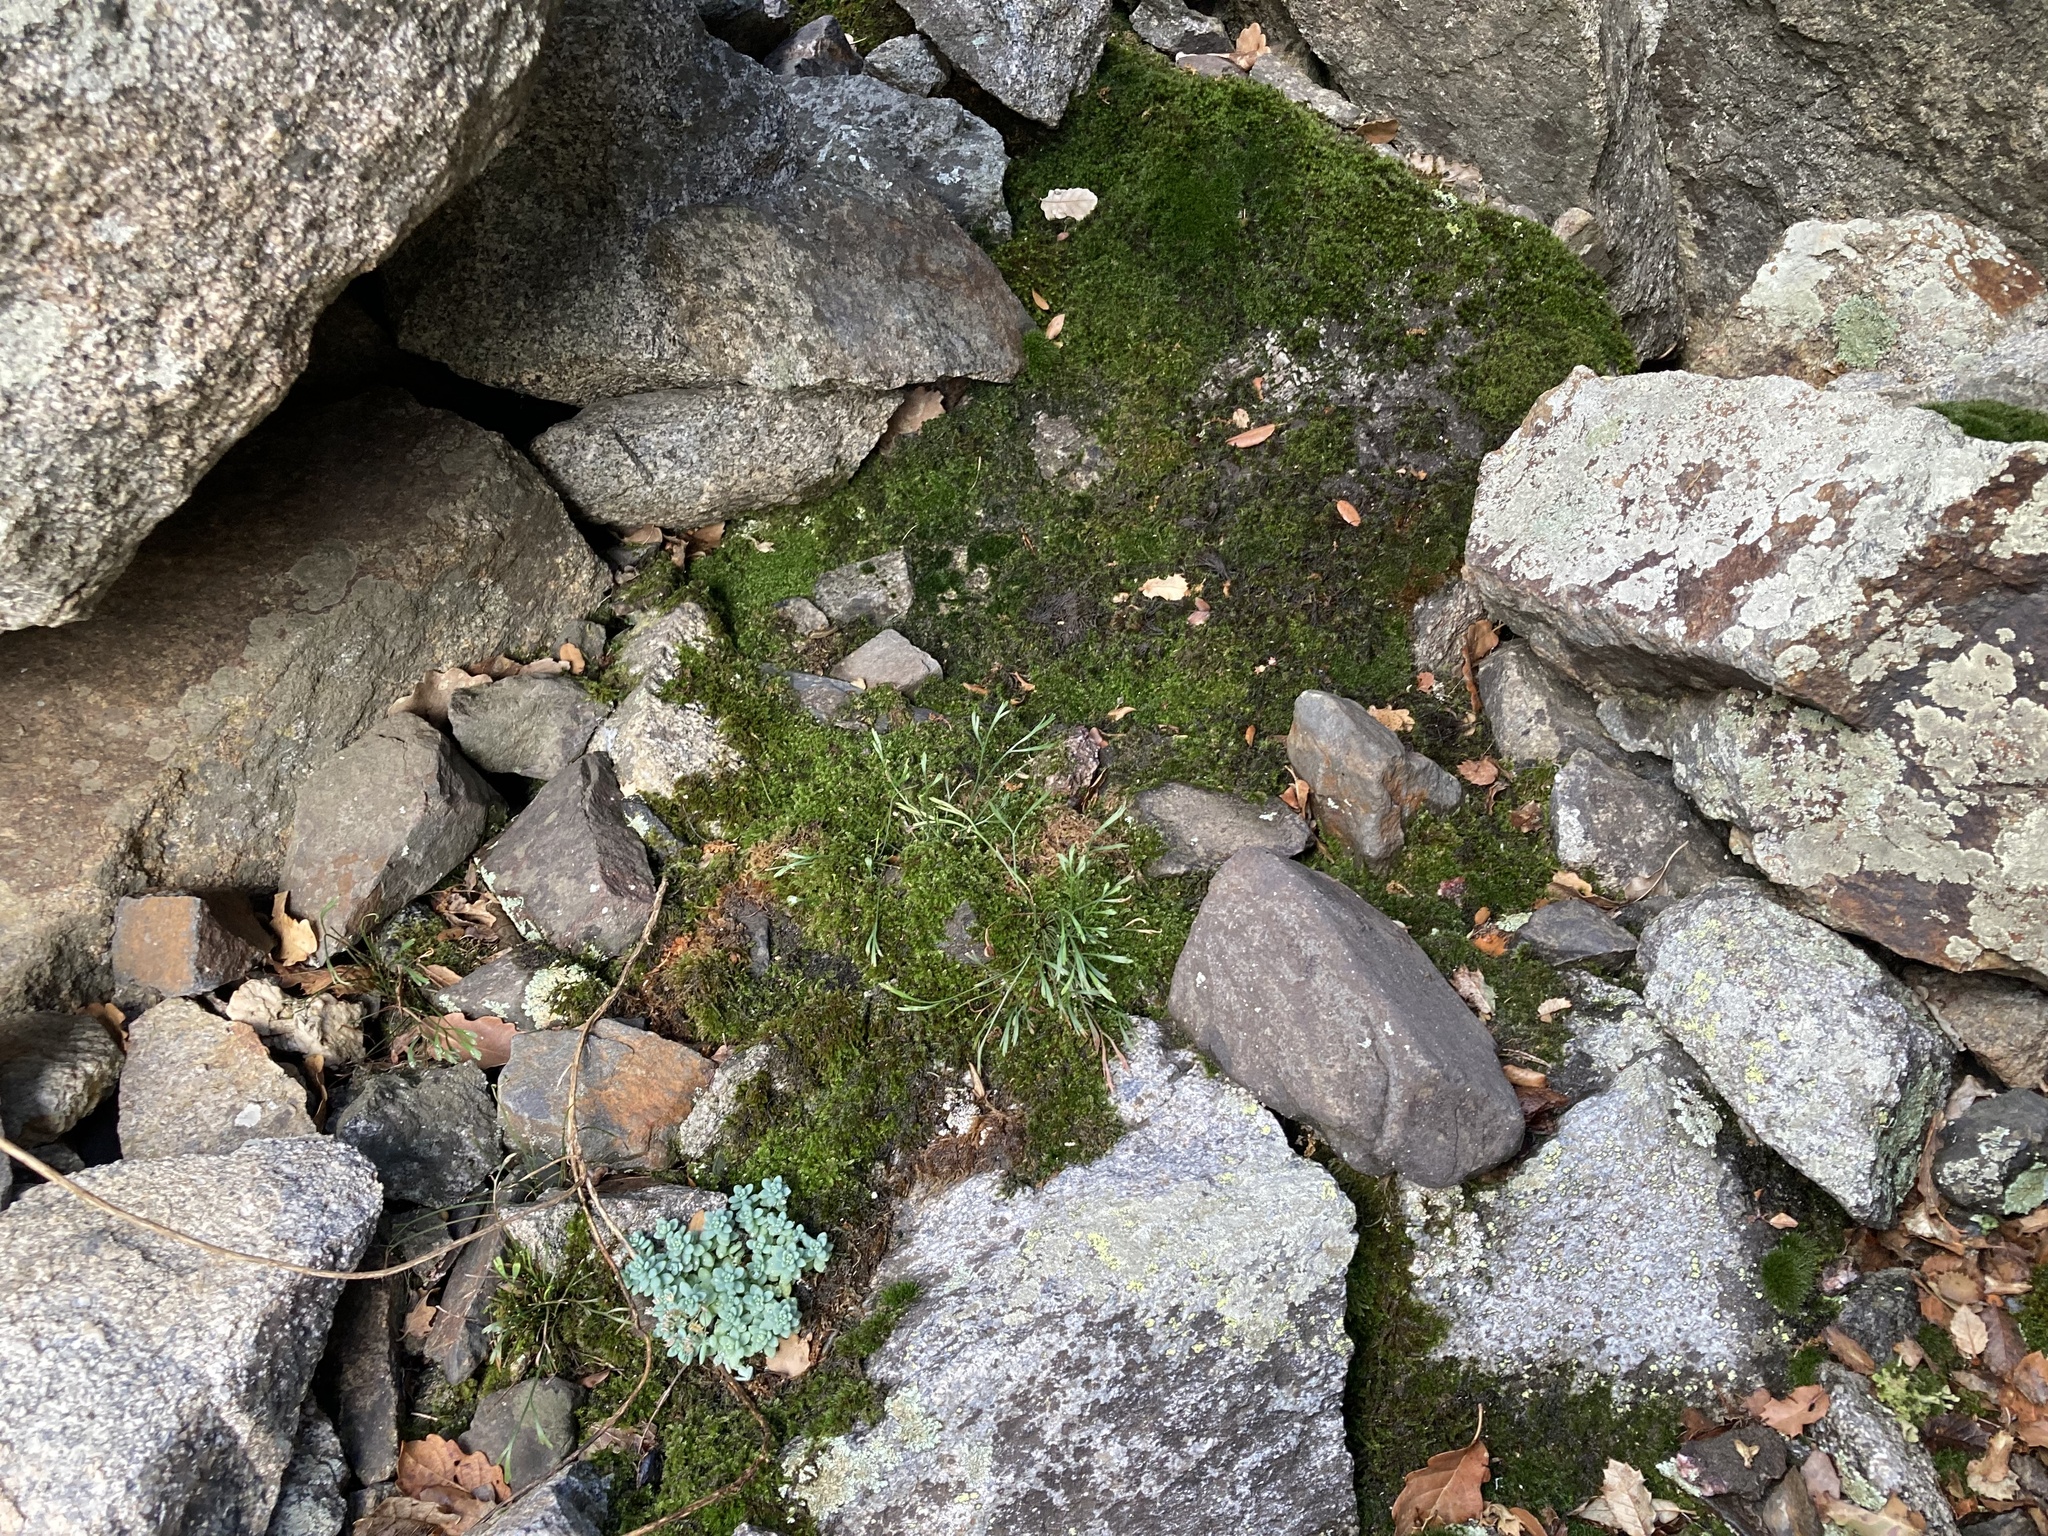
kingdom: Plantae
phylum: Tracheophyta
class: Polypodiopsida
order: Polypodiales
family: Aspleniaceae
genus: Asplenium
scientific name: Asplenium septentrionale
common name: Forked spleenwort
